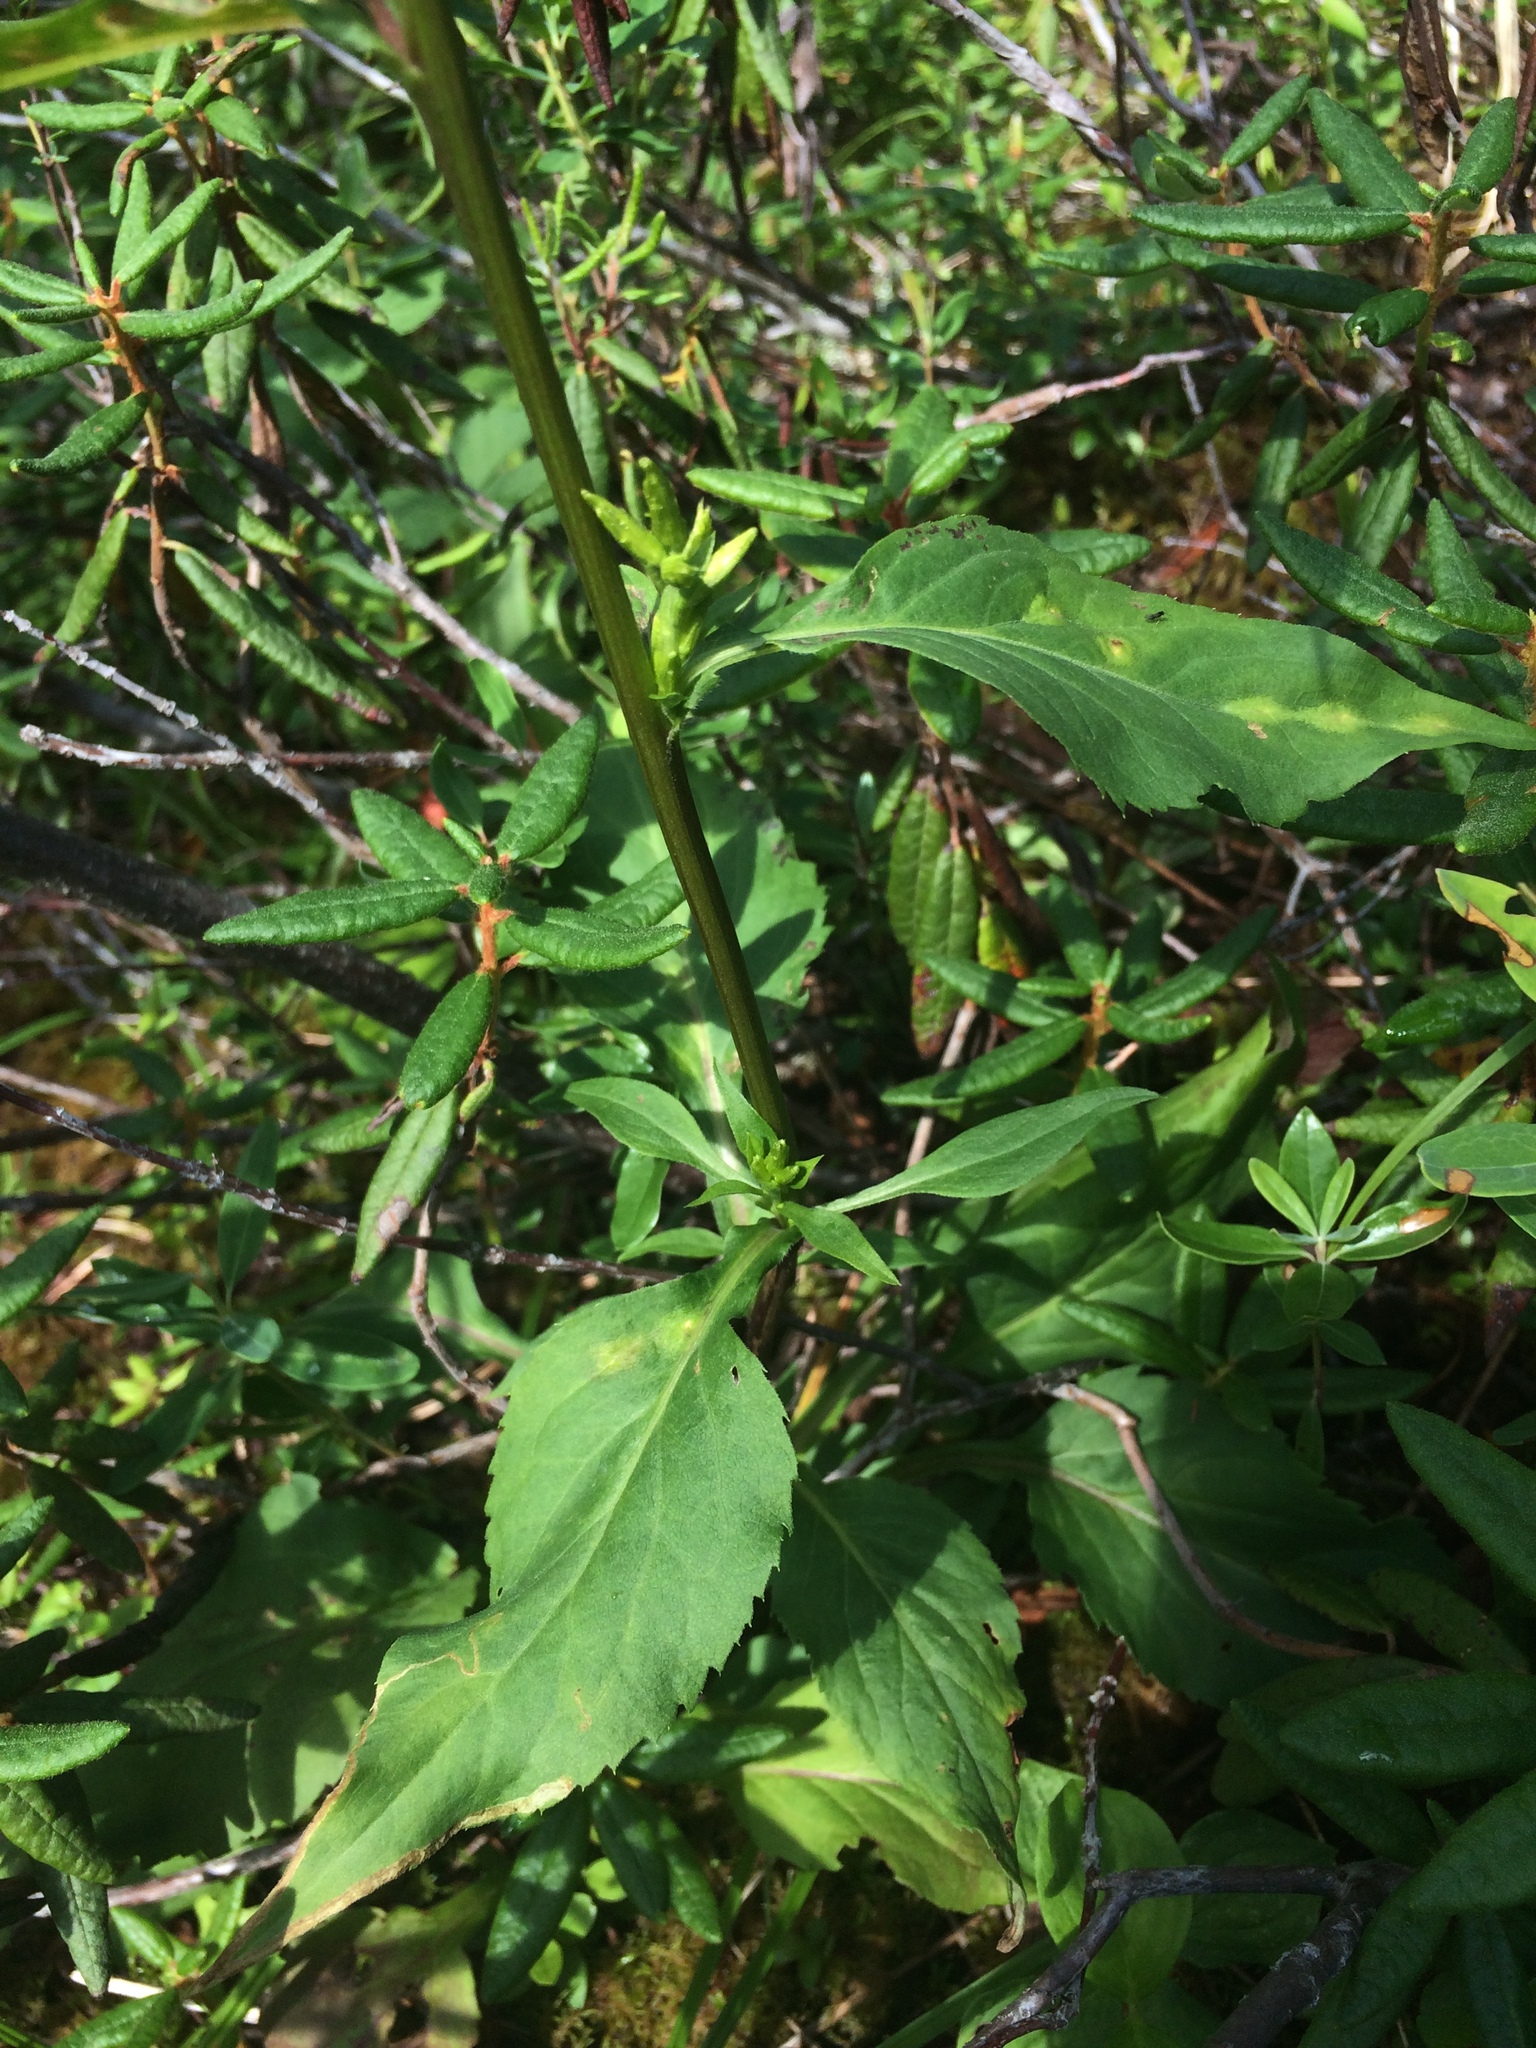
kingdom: Plantae
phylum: Tracheophyta
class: Magnoliopsida
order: Asterales
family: Asteraceae
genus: Solidago
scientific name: Solidago macrophylla
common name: Large-leaved goldenrod
